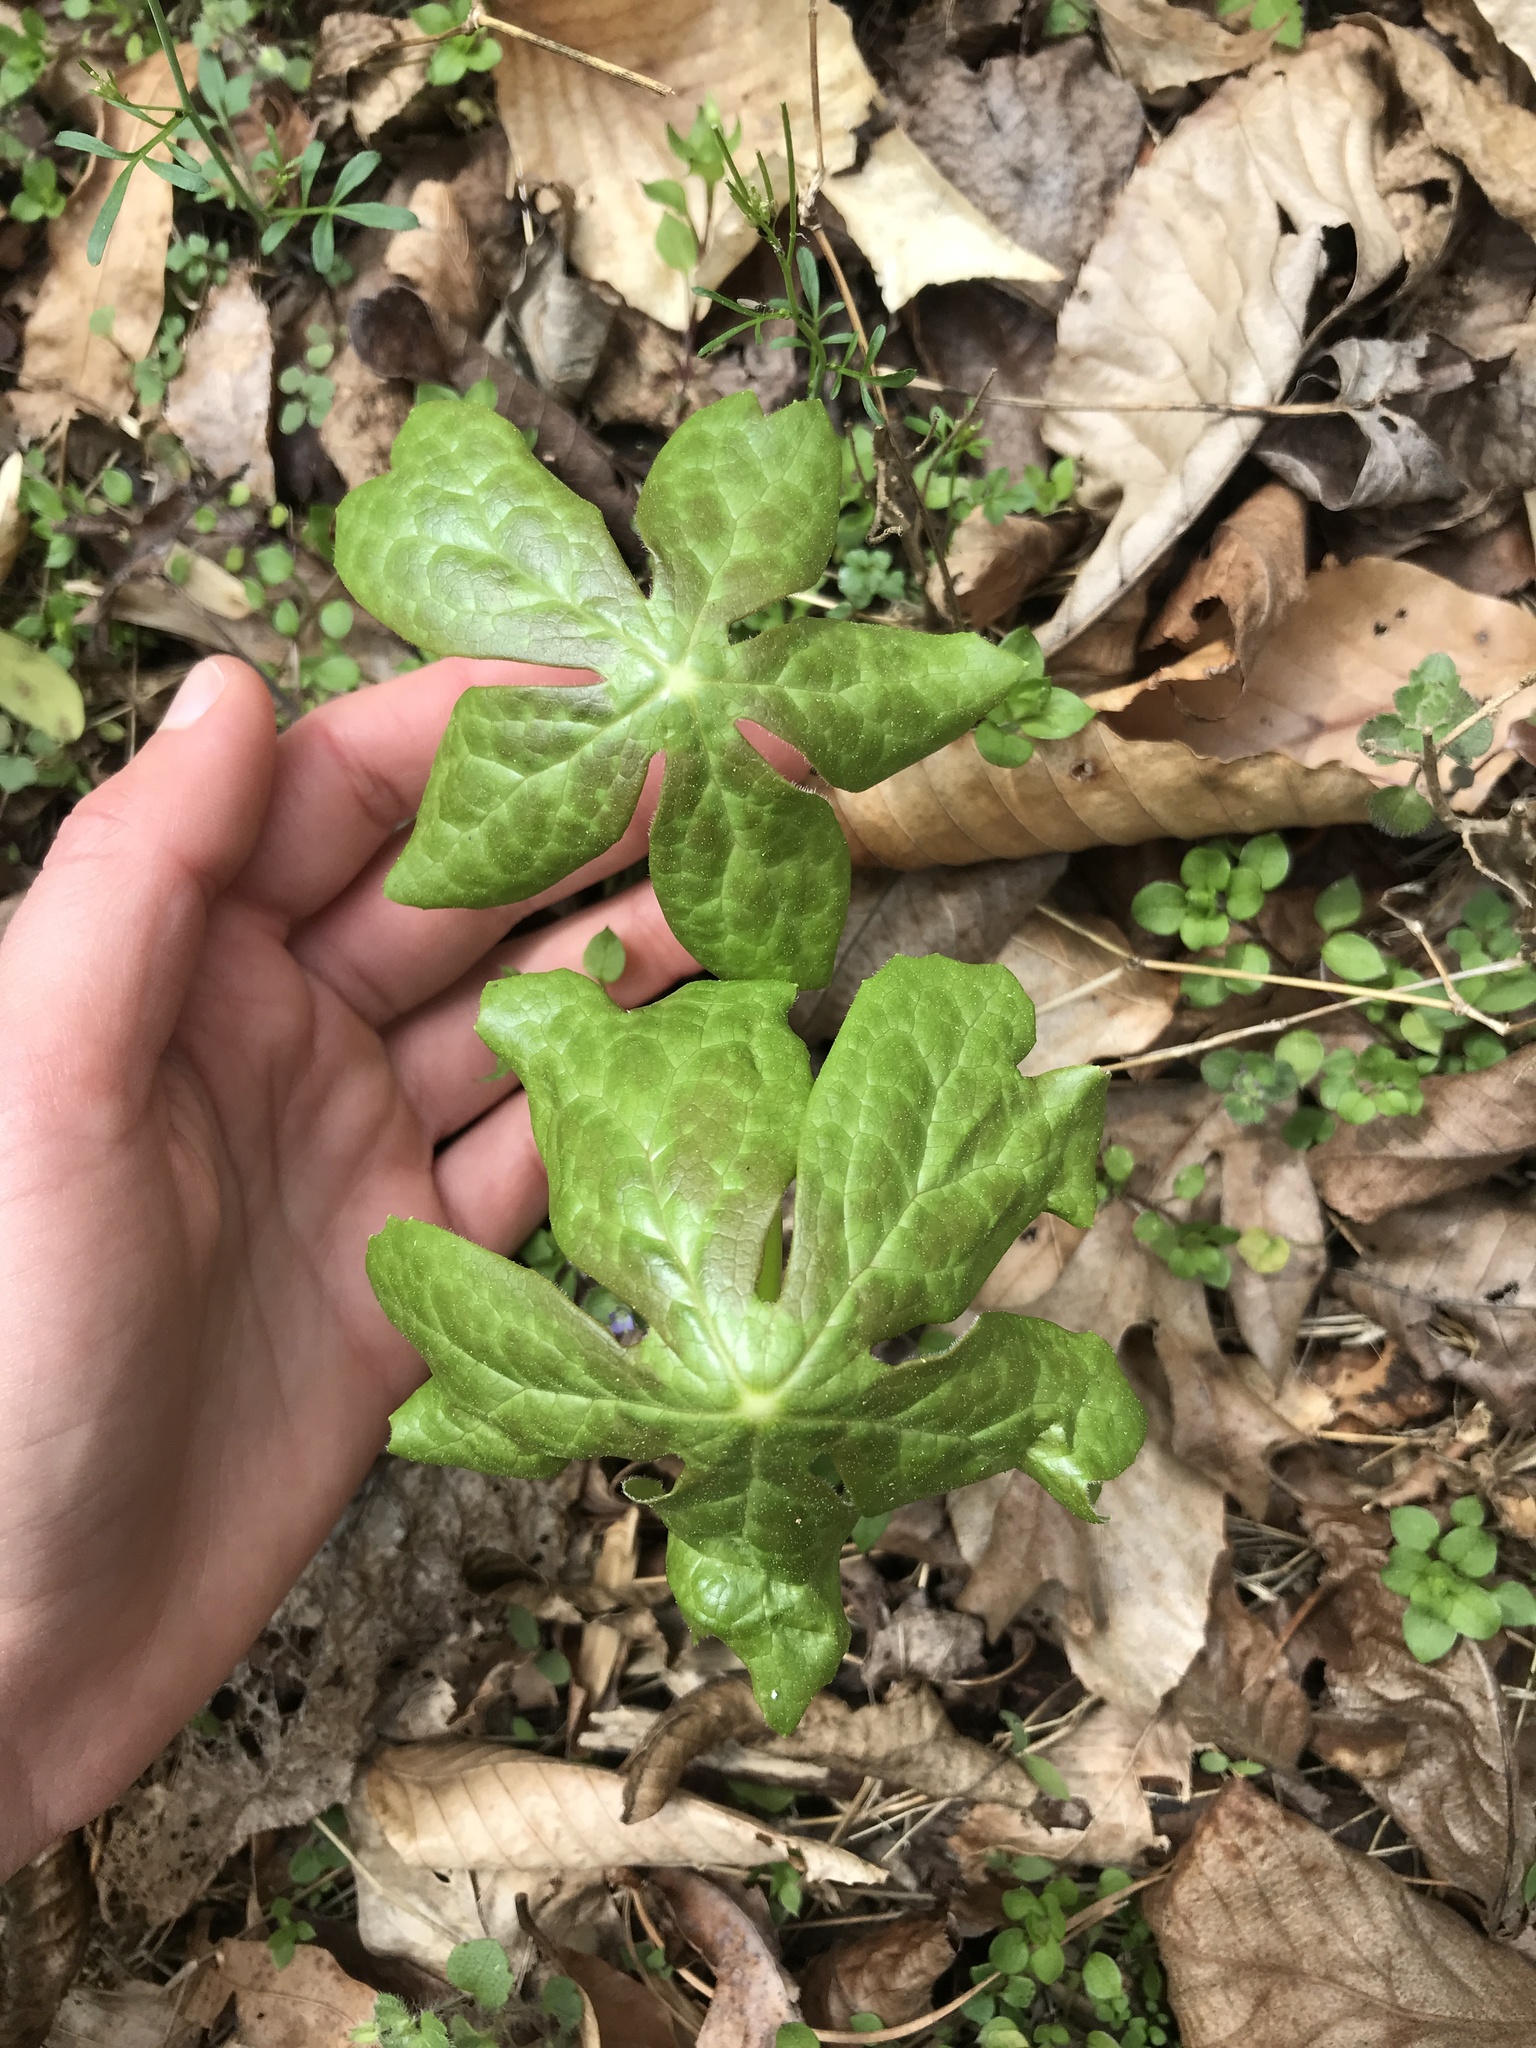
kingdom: Plantae
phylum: Tracheophyta
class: Magnoliopsida
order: Ranunculales
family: Berberidaceae
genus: Podophyllum
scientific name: Podophyllum peltatum
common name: Wild mandrake
